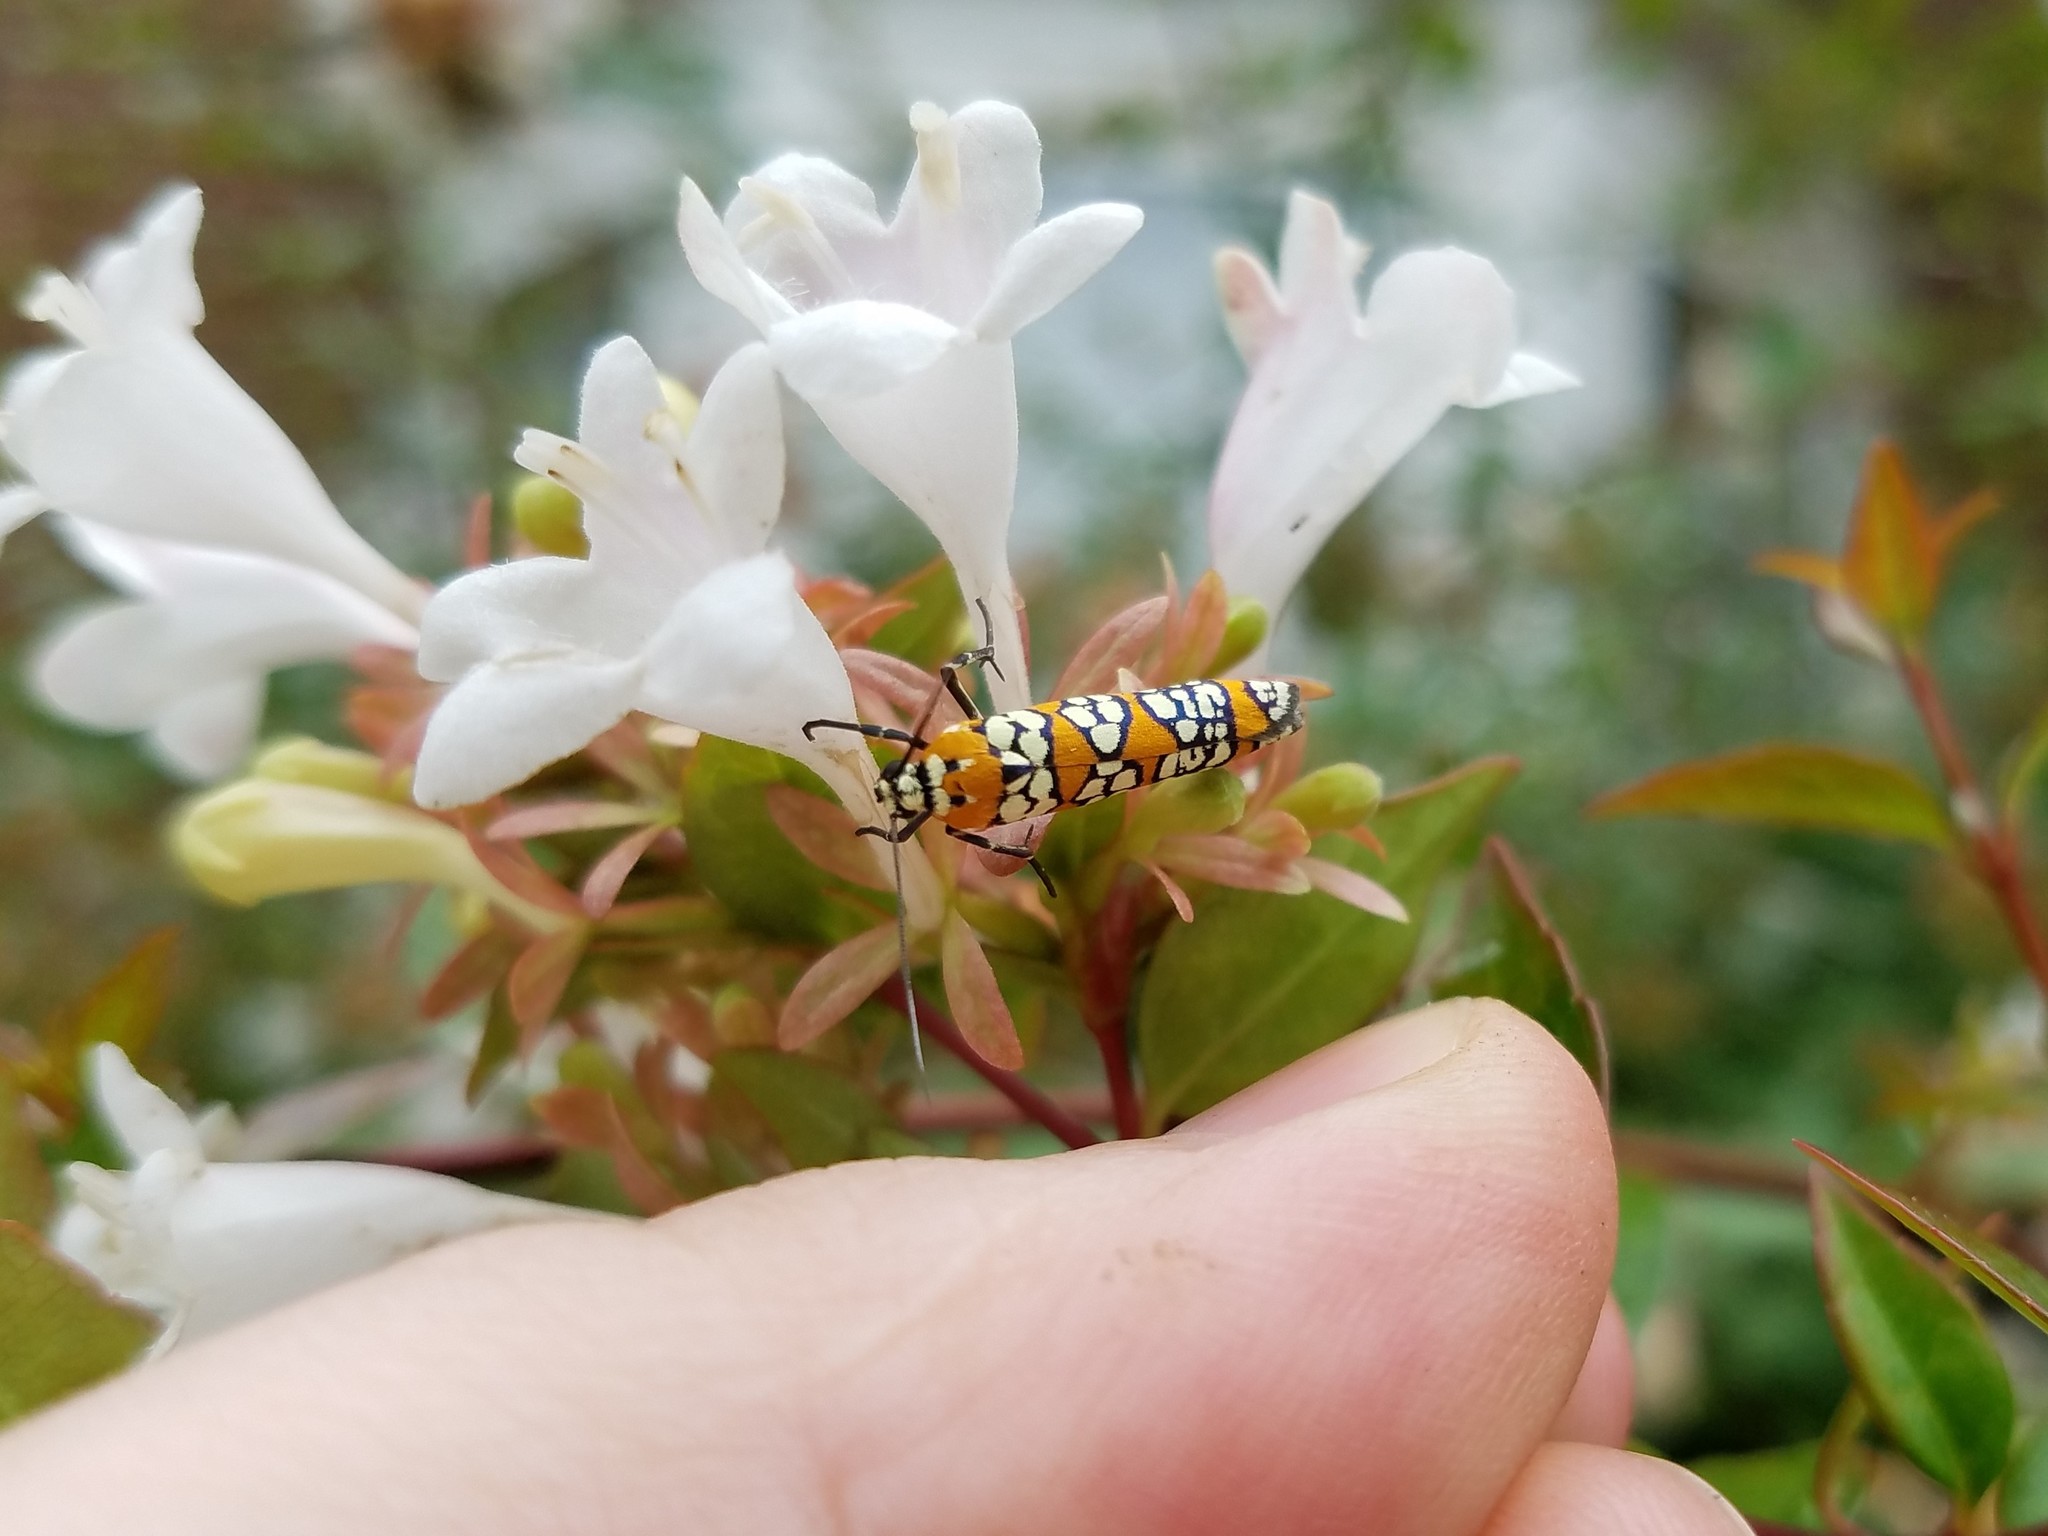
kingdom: Animalia
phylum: Arthropoda
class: Insecta
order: Lepidoptera
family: Attevidae
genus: Atteva
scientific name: Atteva punctella
